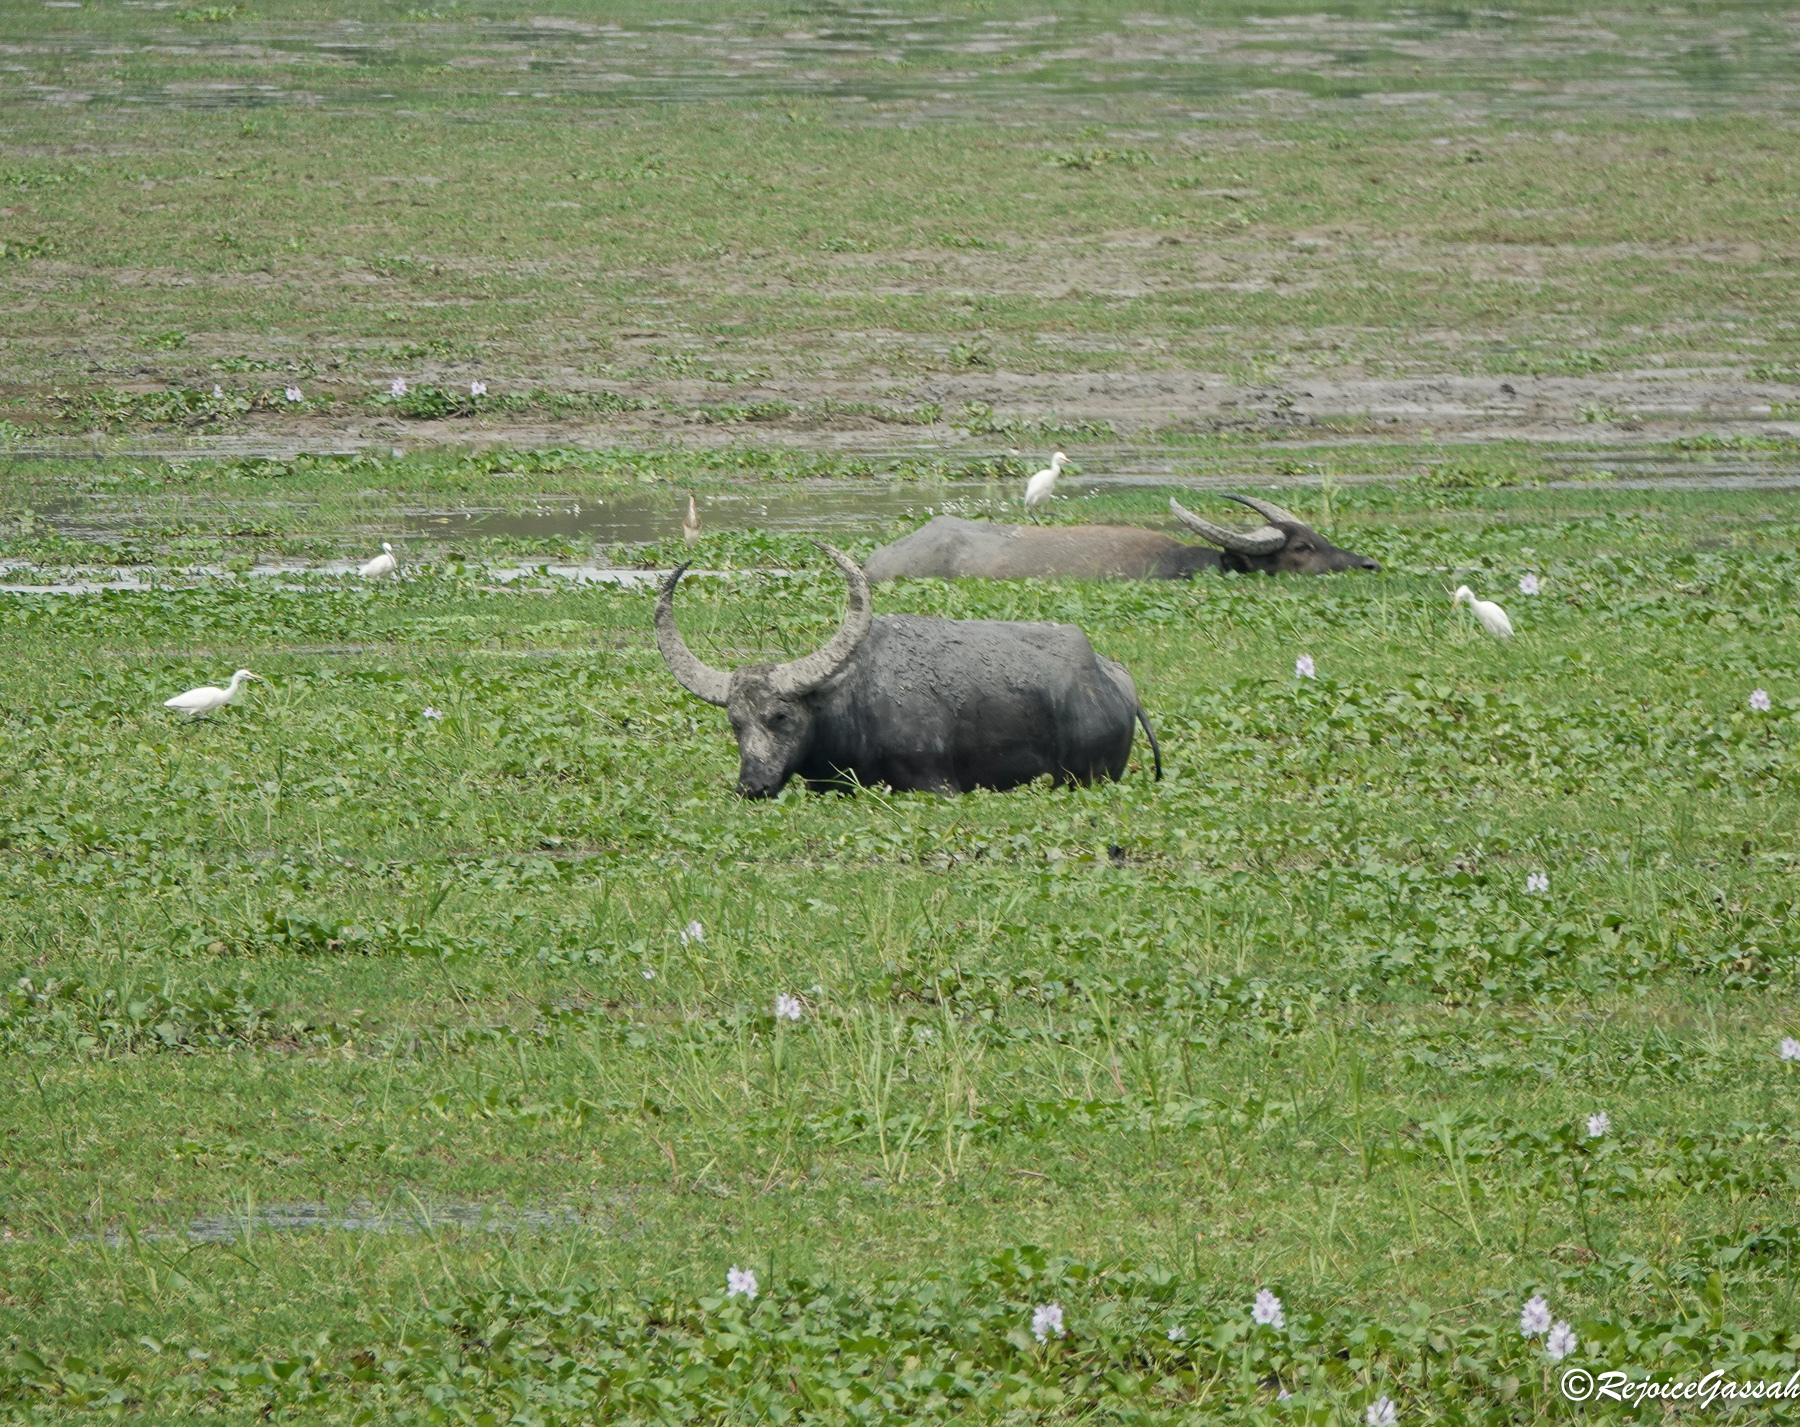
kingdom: Animalia
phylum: Chordata
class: Mammalia
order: Artiodactyla
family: Bovidae
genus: Bubalus
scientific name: Bubalus bubalis
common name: Water buffalo
